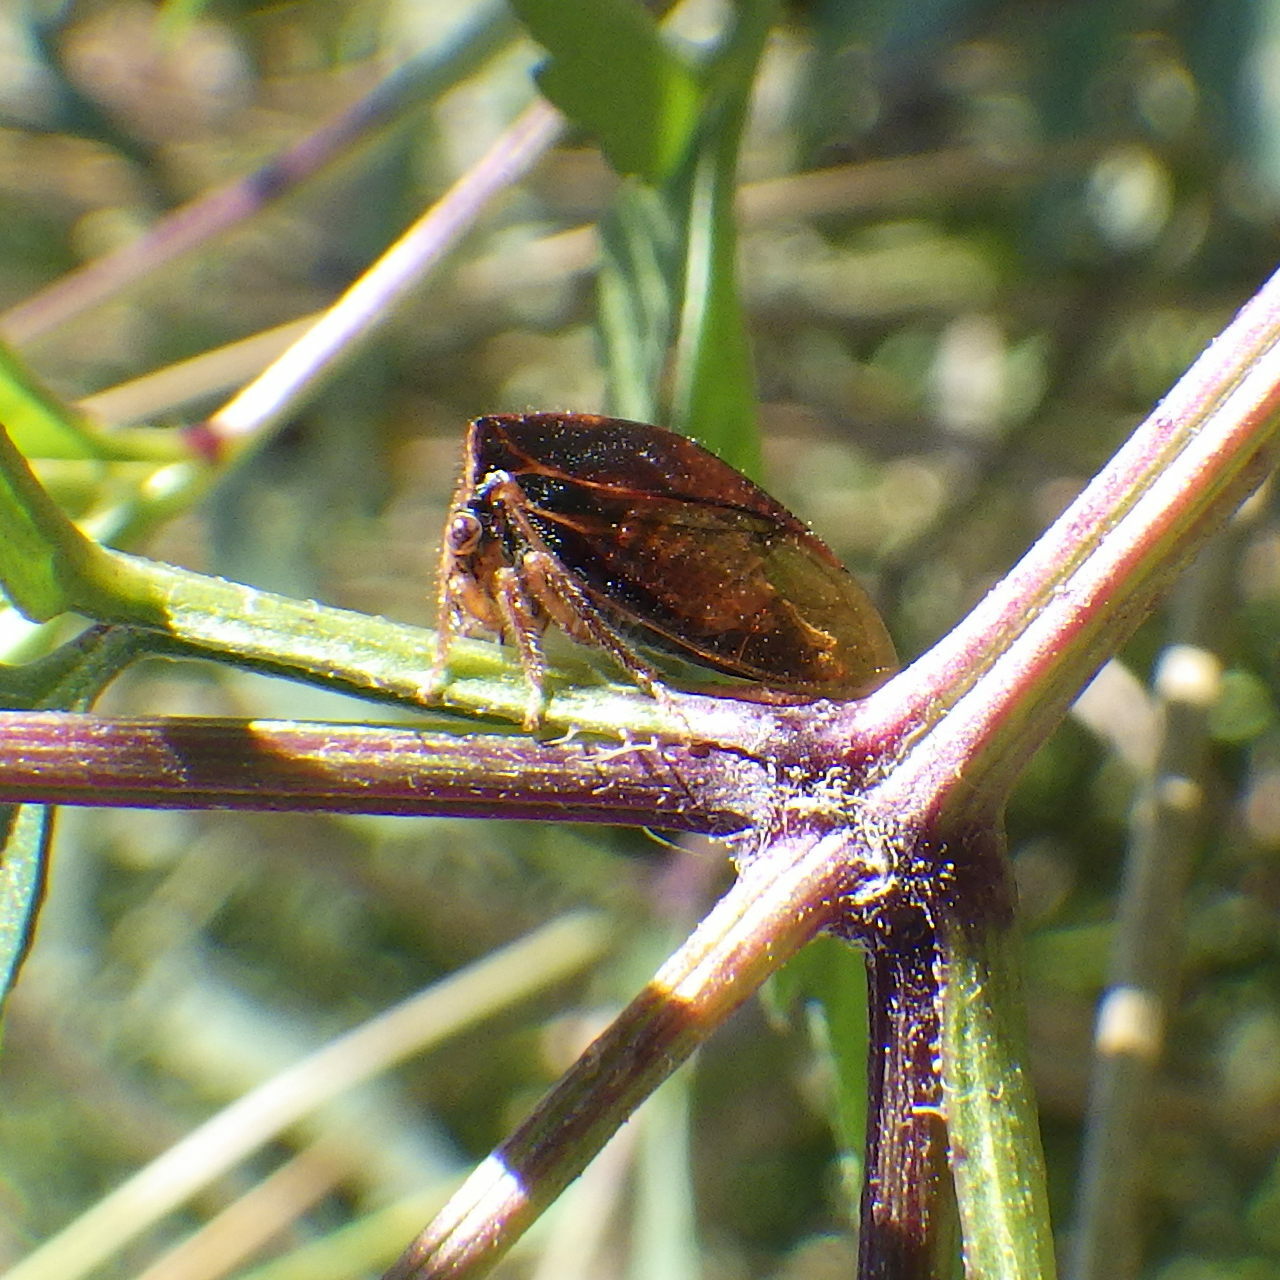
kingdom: Animalia
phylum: Arthropoda
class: Insecta
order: Hemiptera
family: Membracidae
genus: Stictocephala
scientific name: Stictocephala basalis
